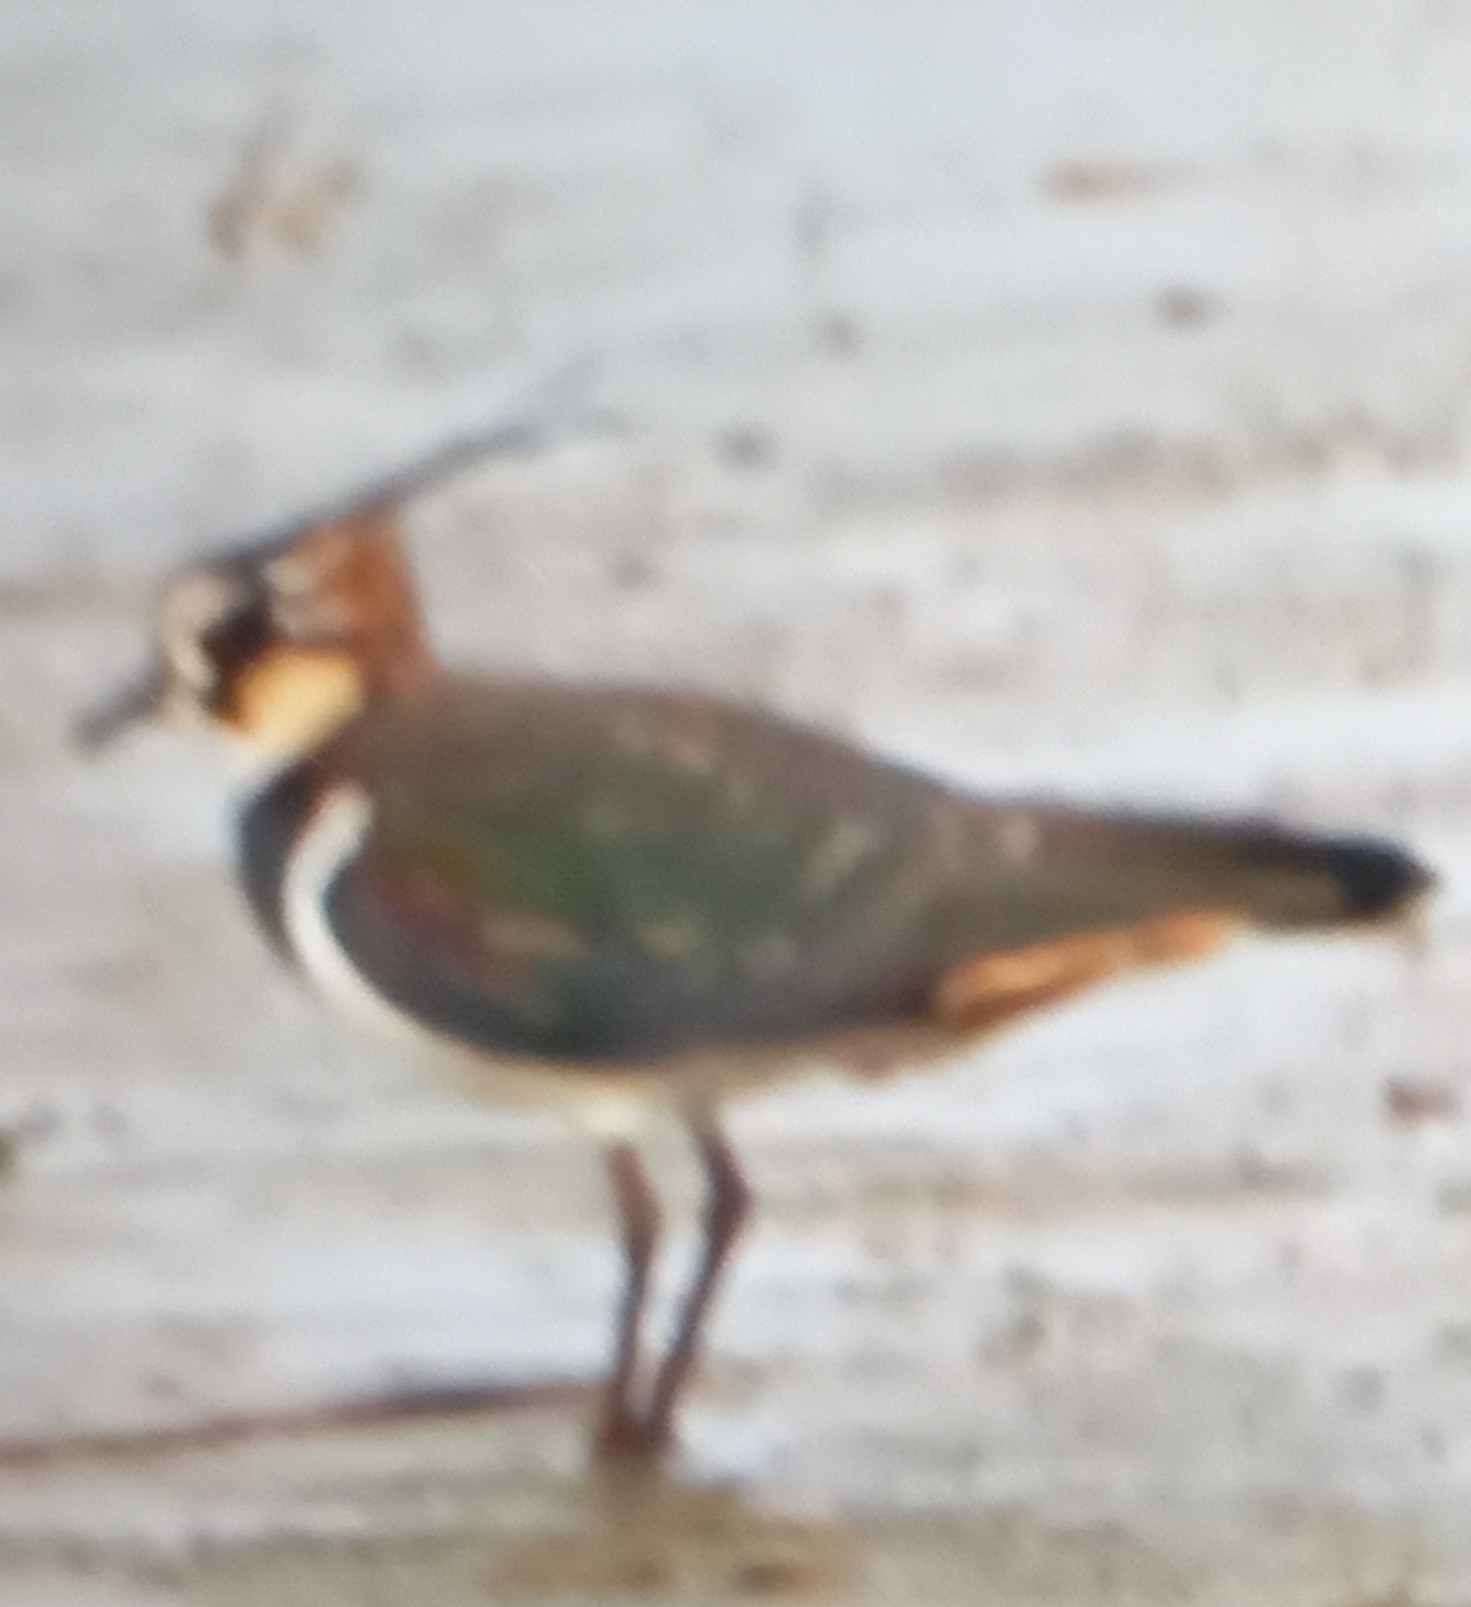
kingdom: Animalia
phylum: Chordata
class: Aves
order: Charadriiformes
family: Charadriidae
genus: Vanellus
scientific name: Vanellus vanellus
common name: Northern lapwing
